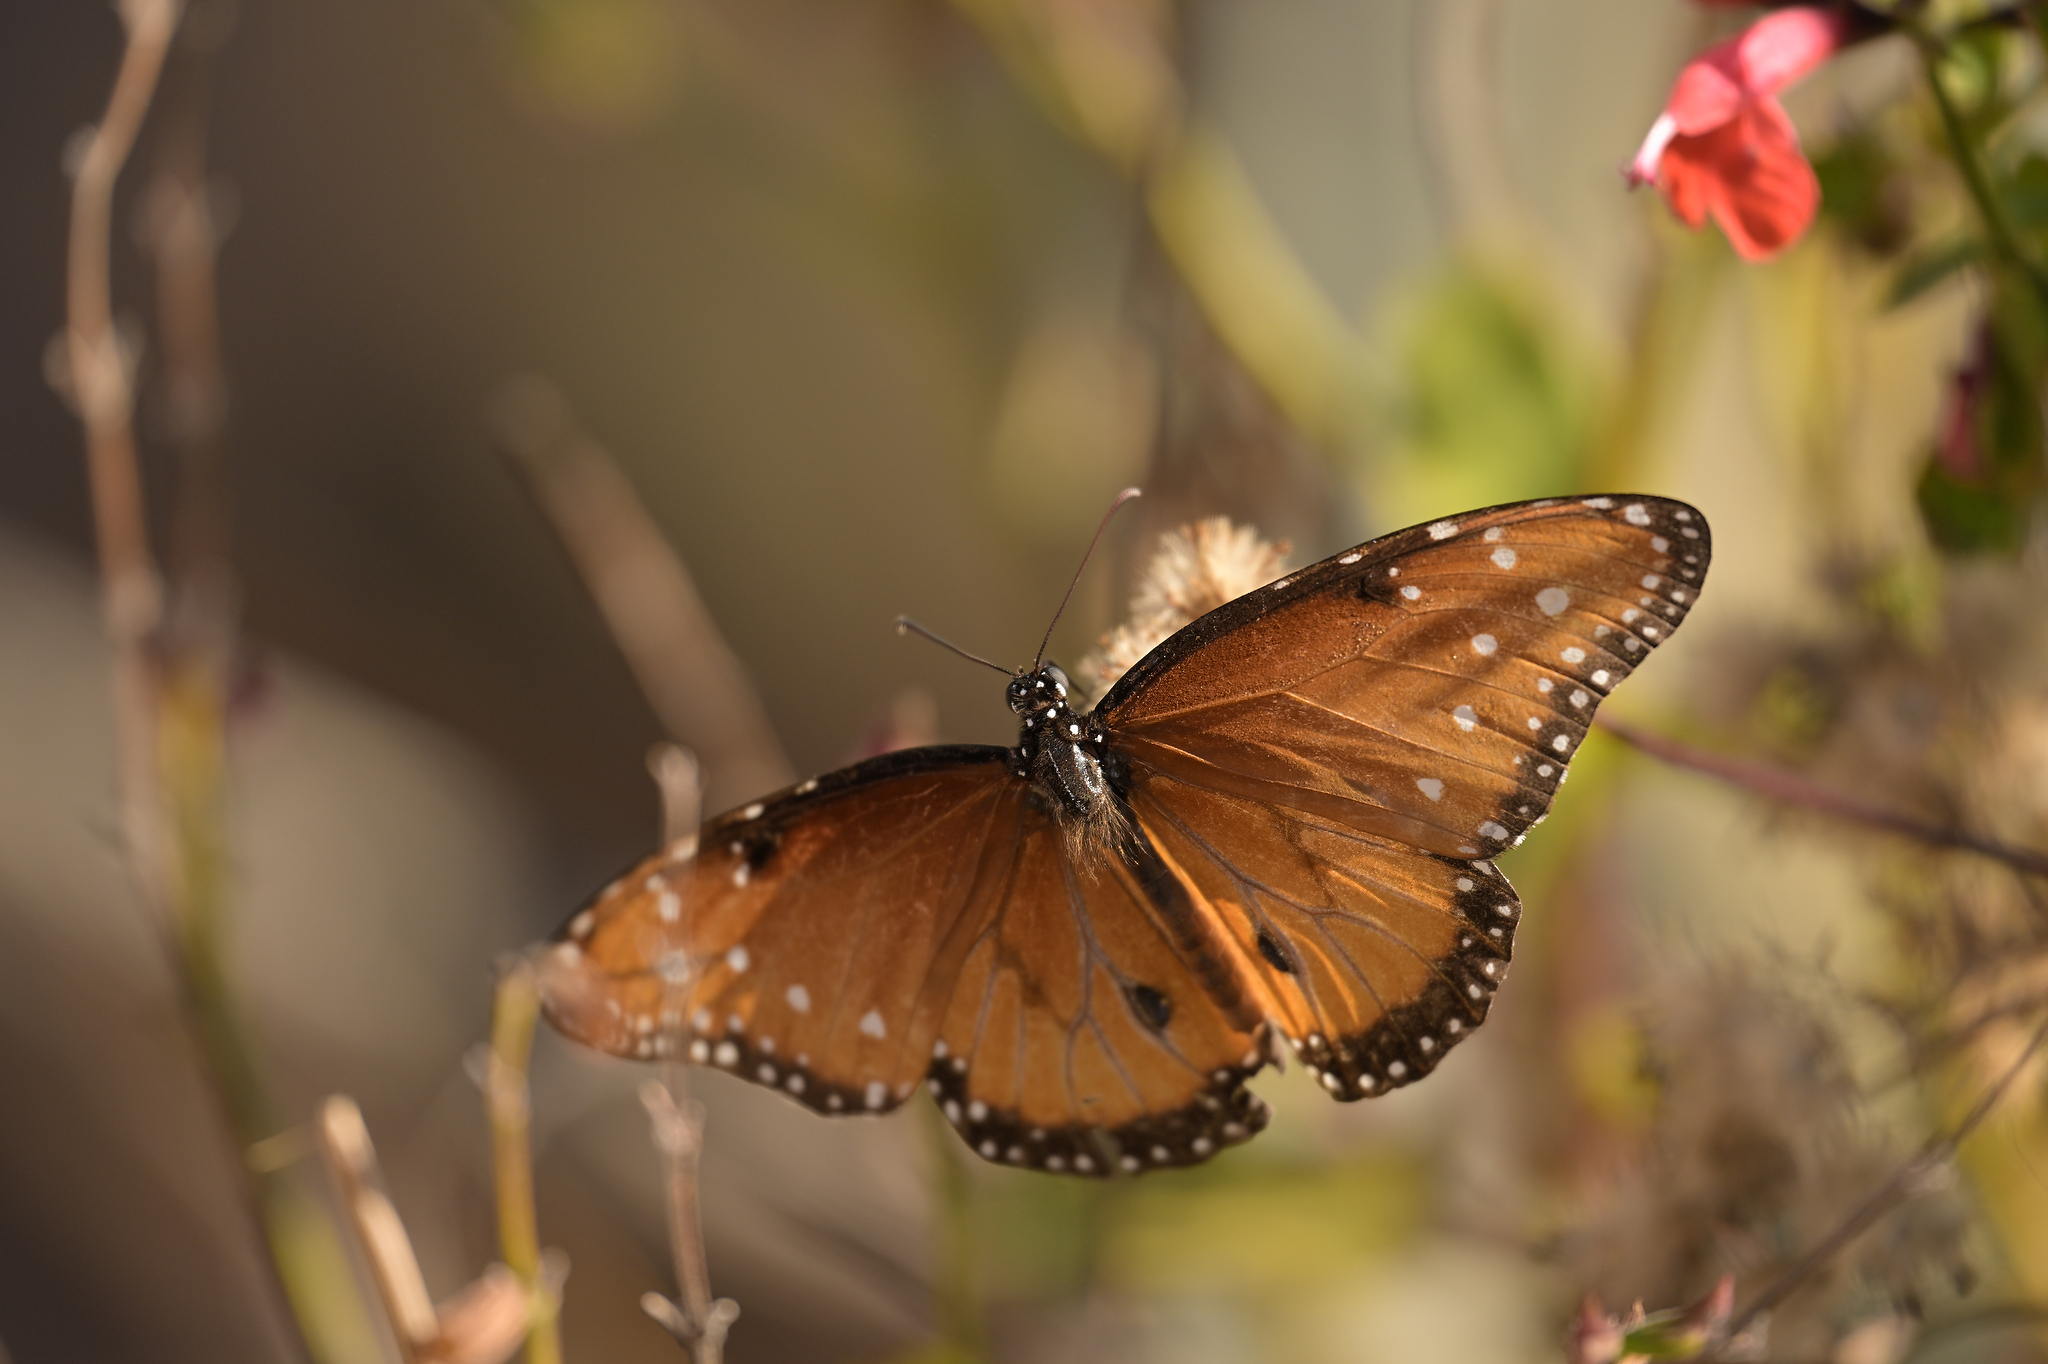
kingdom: Animalia
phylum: Arthropoda
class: Insecta
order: Lepidoptera
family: Nymphalidae
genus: Danaus
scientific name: Danaus gilippus
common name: Queen
